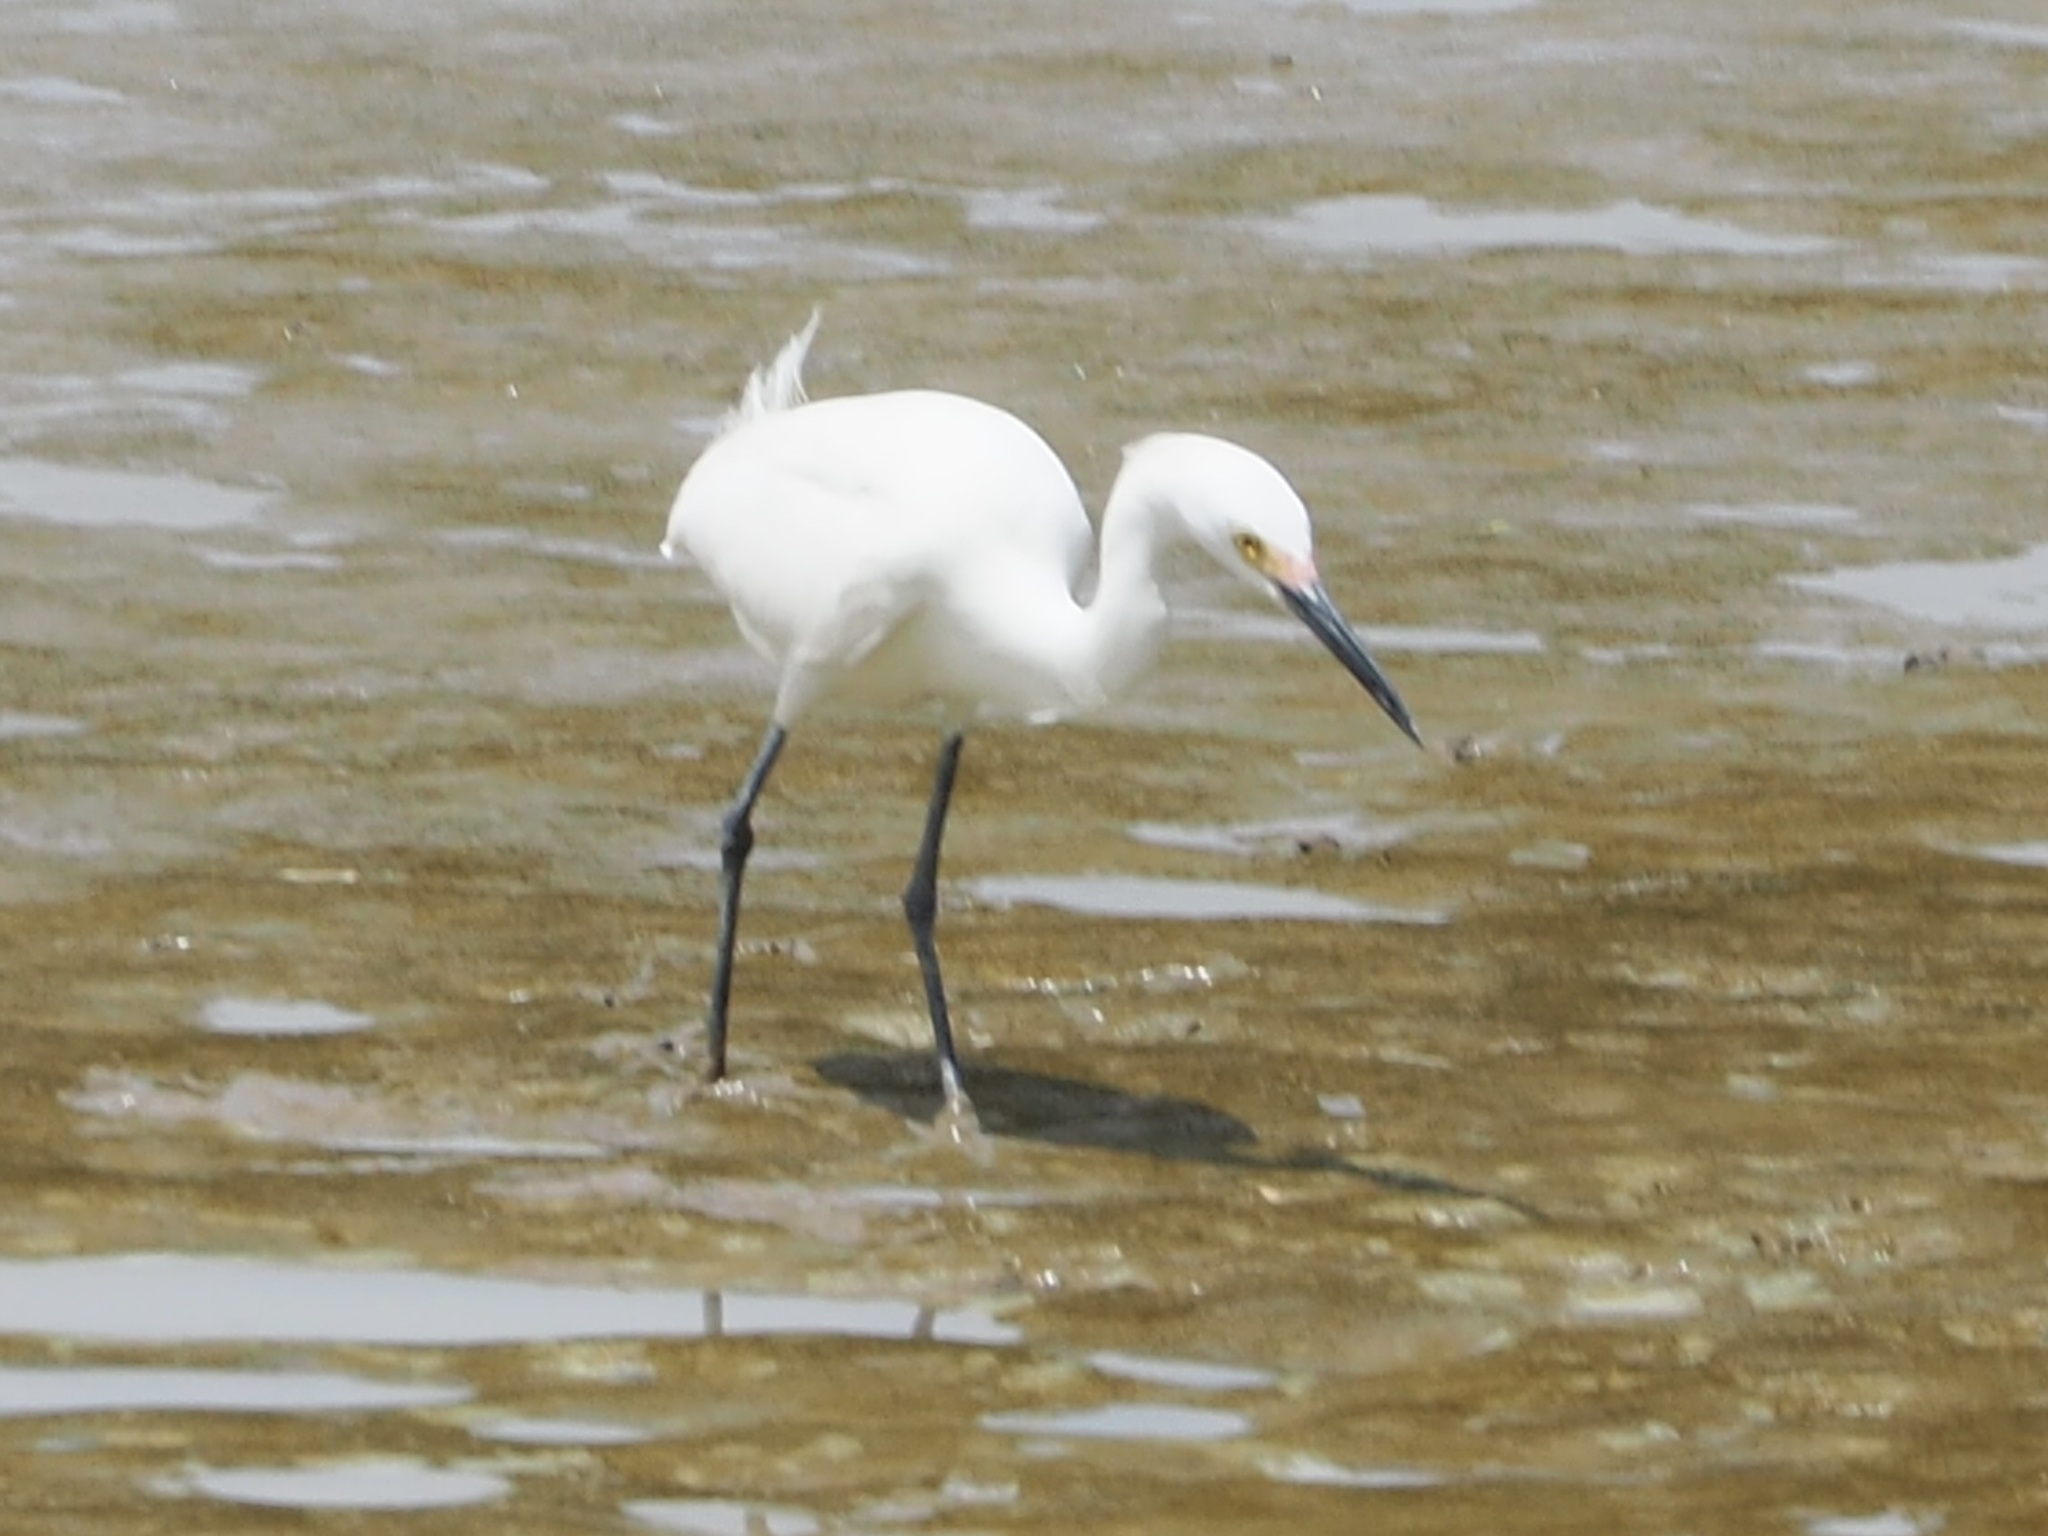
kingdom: Animalia
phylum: Chordata
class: Aves
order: Pelecaniformes
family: Ardeidae
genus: Egretta
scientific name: Egretta thula
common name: Snowy egret
